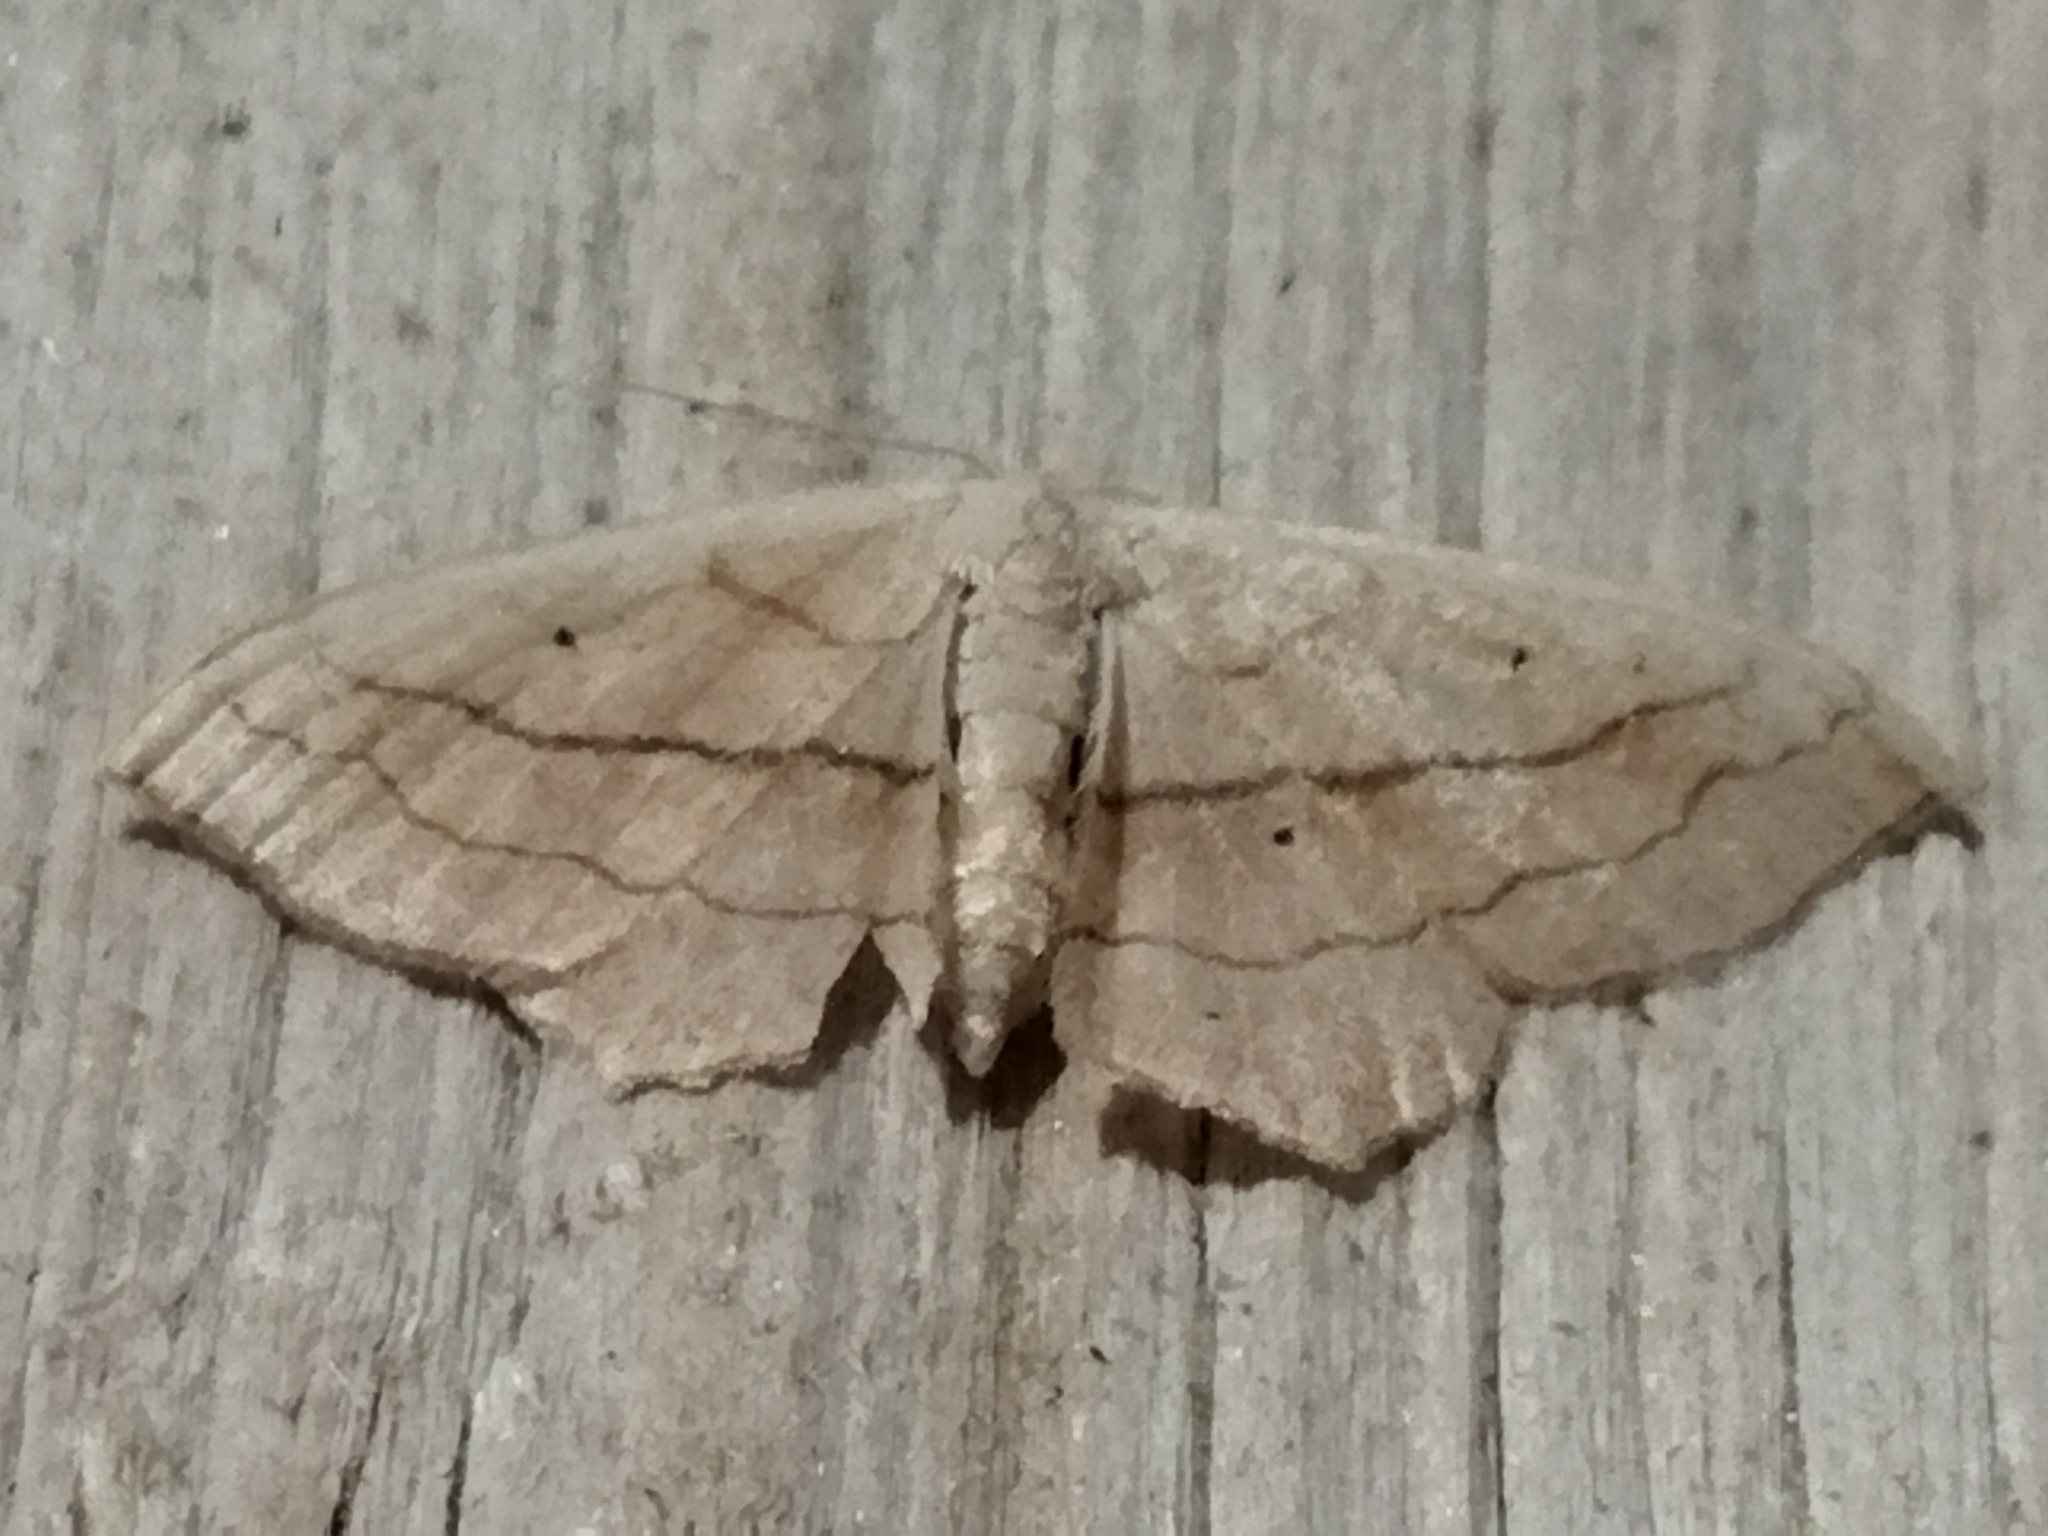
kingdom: Animalia
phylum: Arthropoda
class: Insecta
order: Lepidoptera
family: Geometridae
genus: Scopula
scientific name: Scopula imitaria
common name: Small blood-vein
